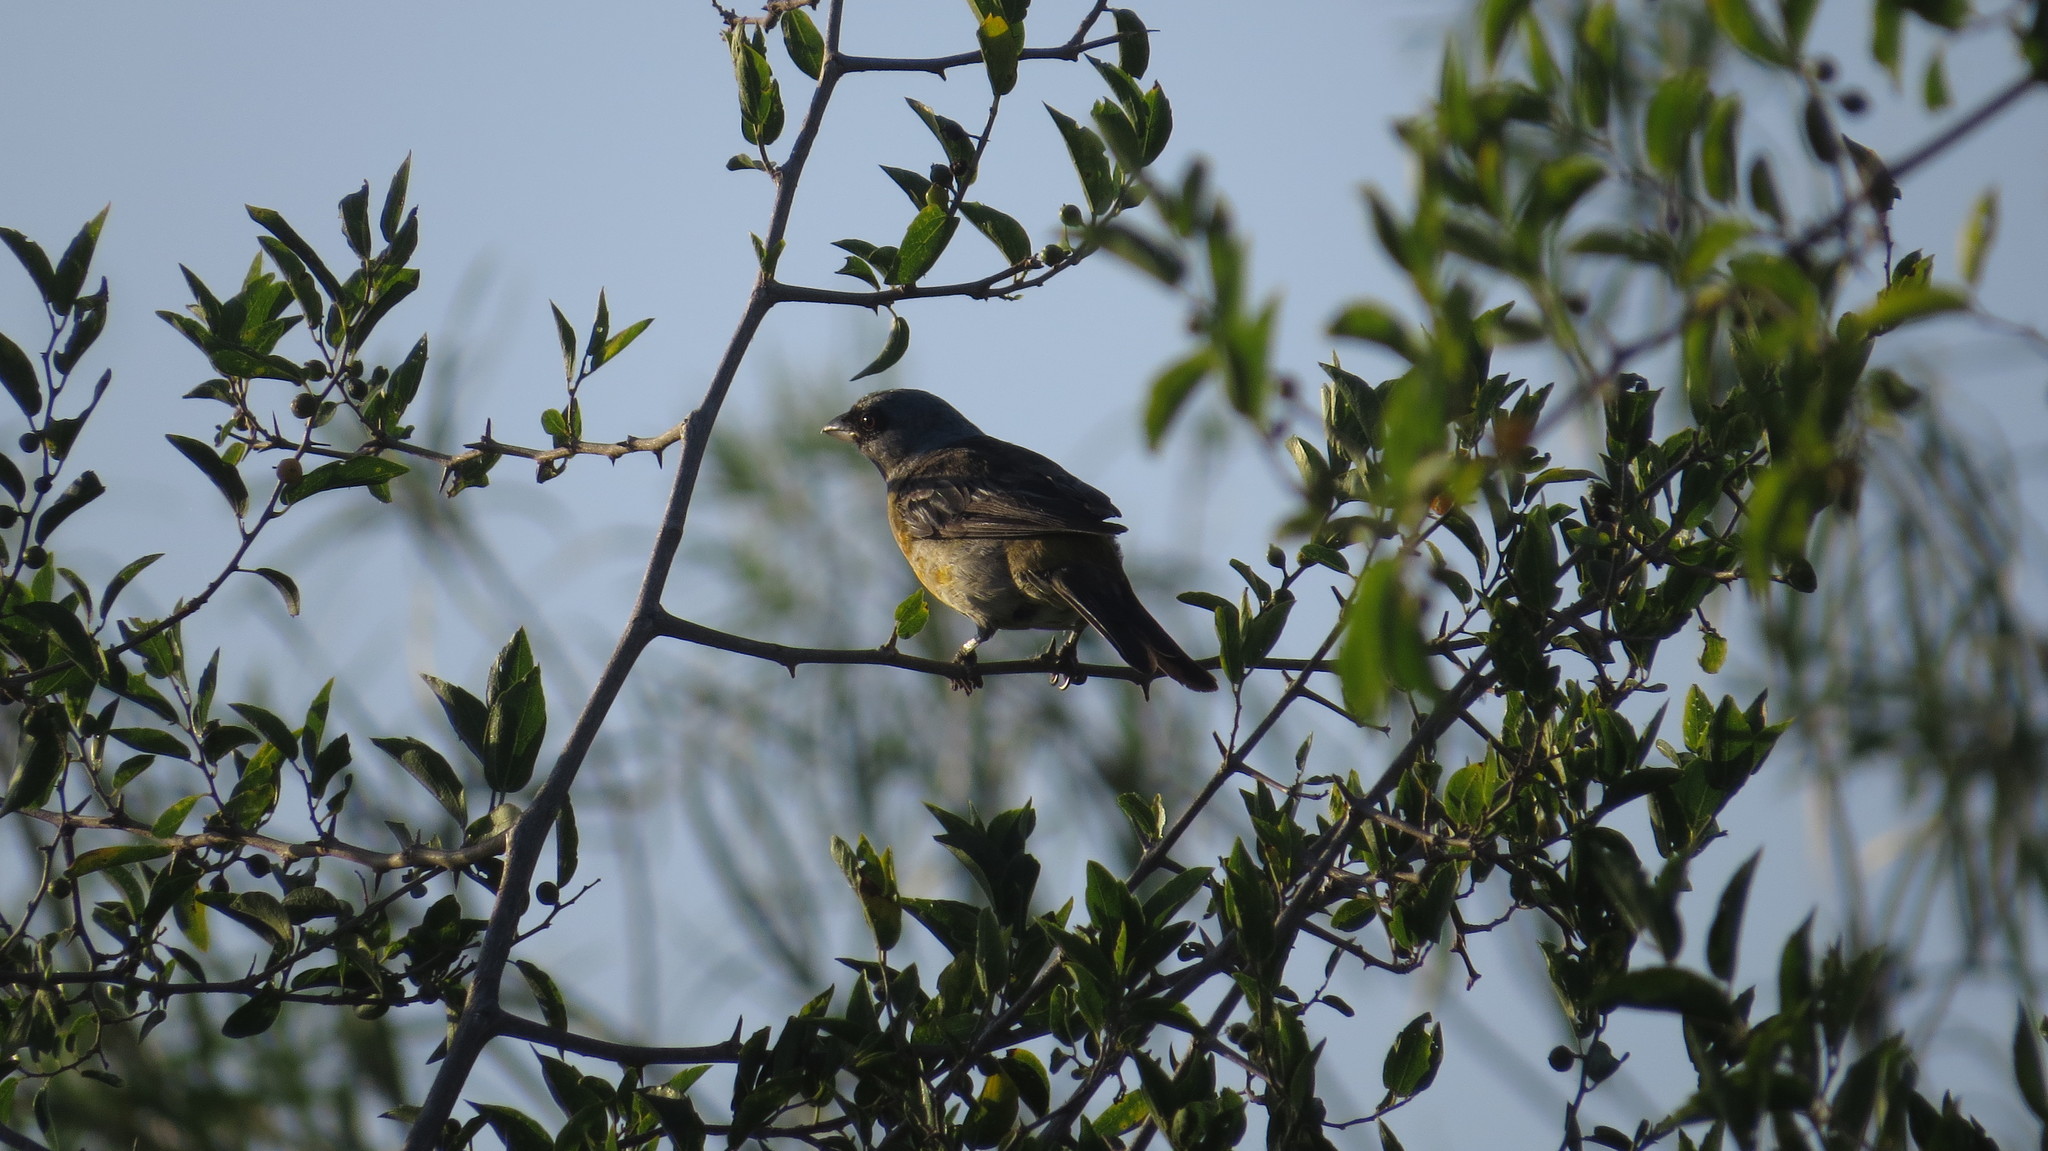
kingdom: Animalia
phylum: Chordata
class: Aves
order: Passeriformes
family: Thraupidae
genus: Rauenia
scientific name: Rauenia bonariensis
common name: Blue-and-yellow tanager
